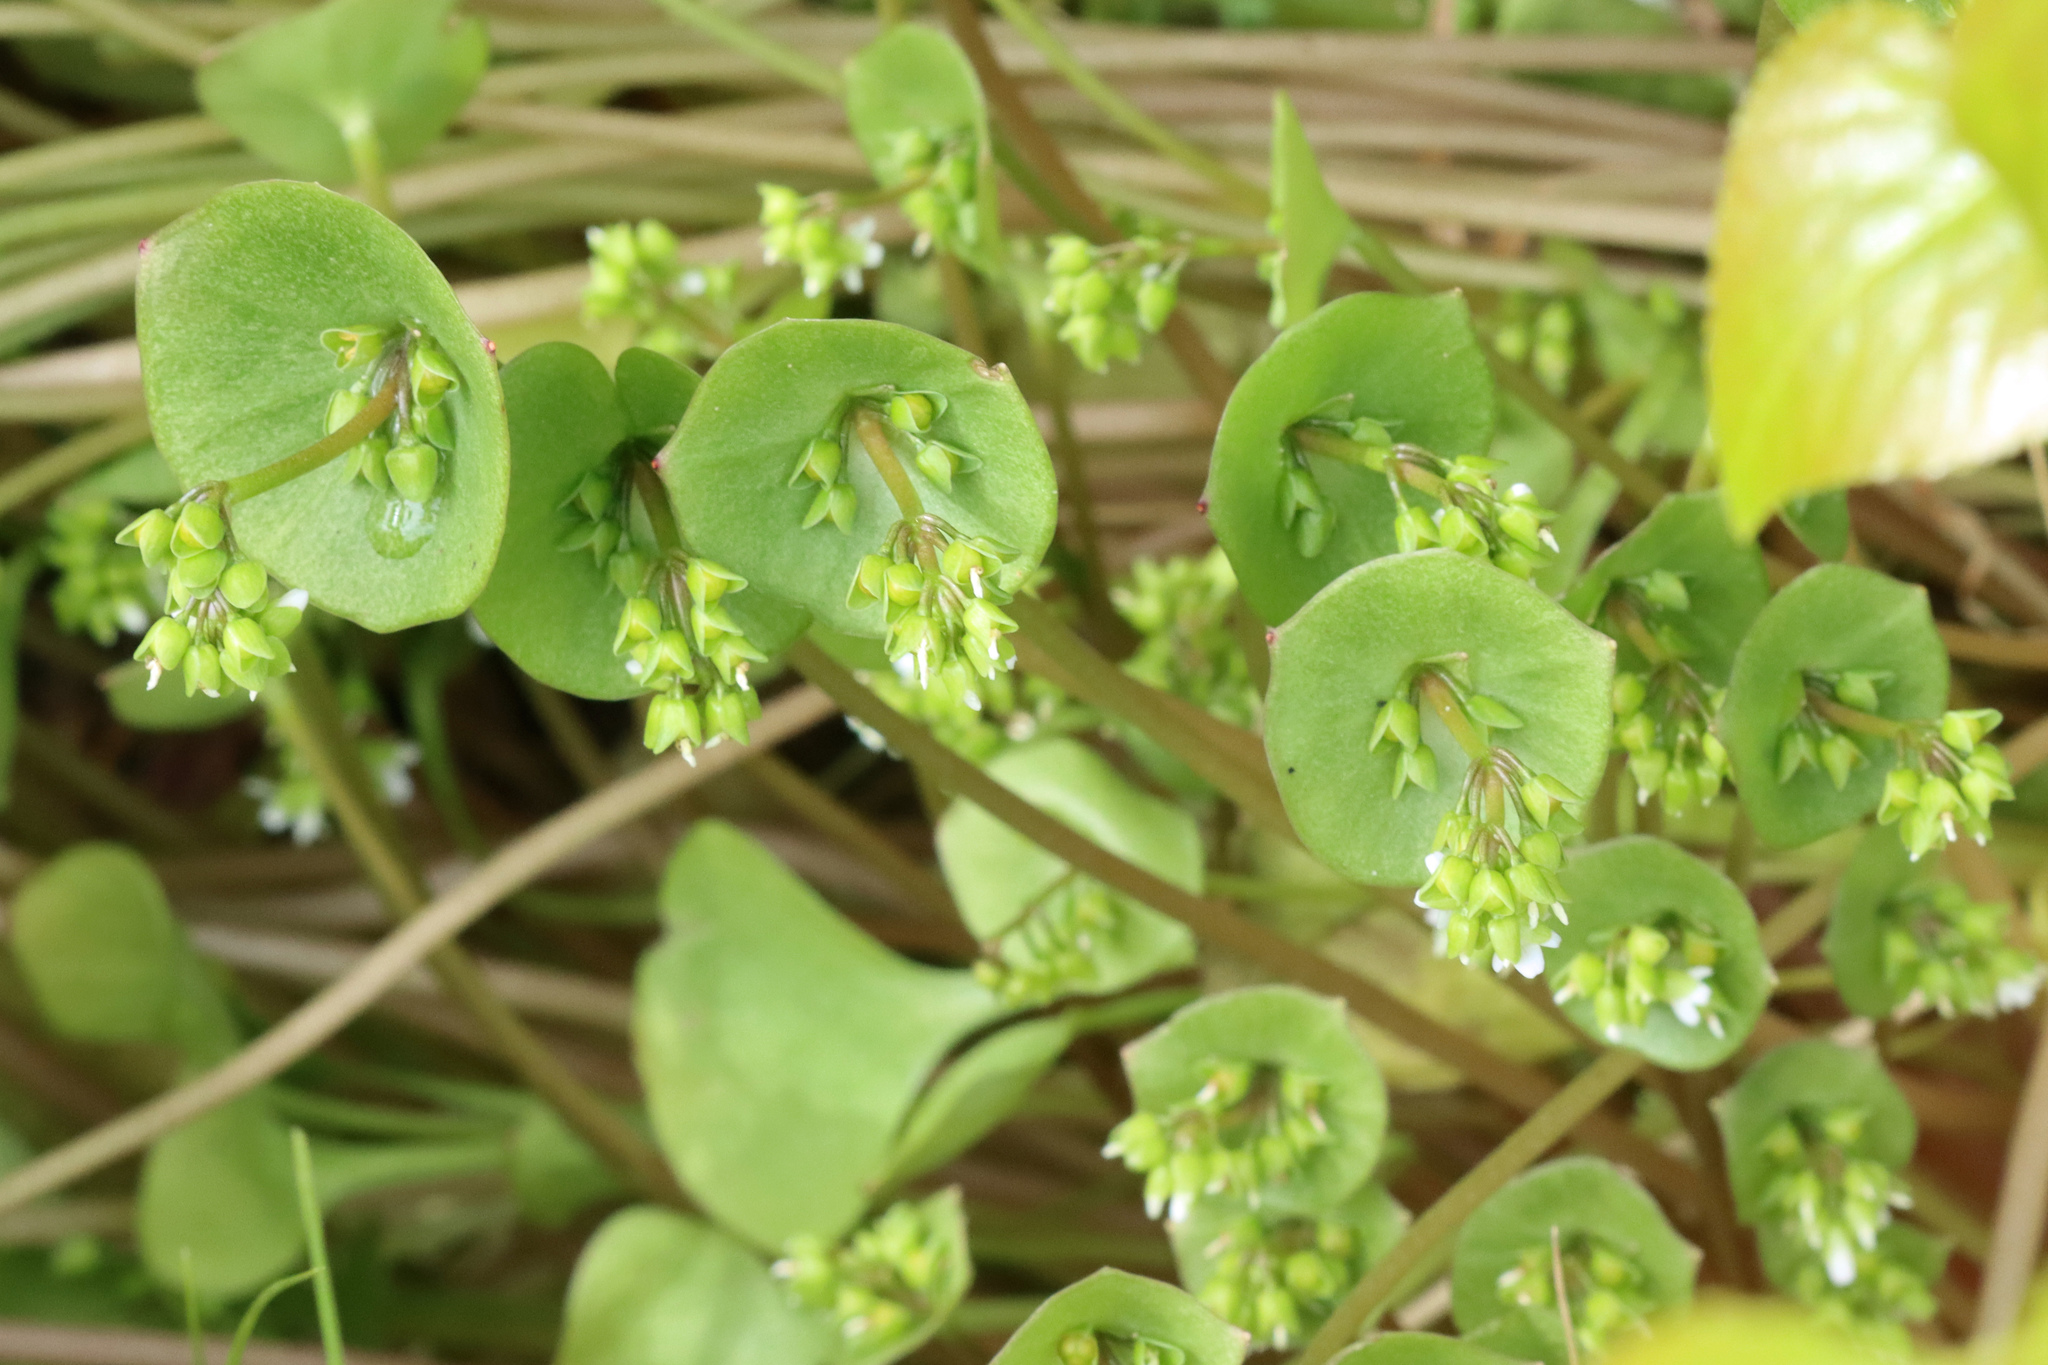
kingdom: Plantae
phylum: Tracheophyta
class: Magnoliopsida
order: Caryophyllales
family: Montiaceae
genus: Claytonia
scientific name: Claytonia perfoliata
